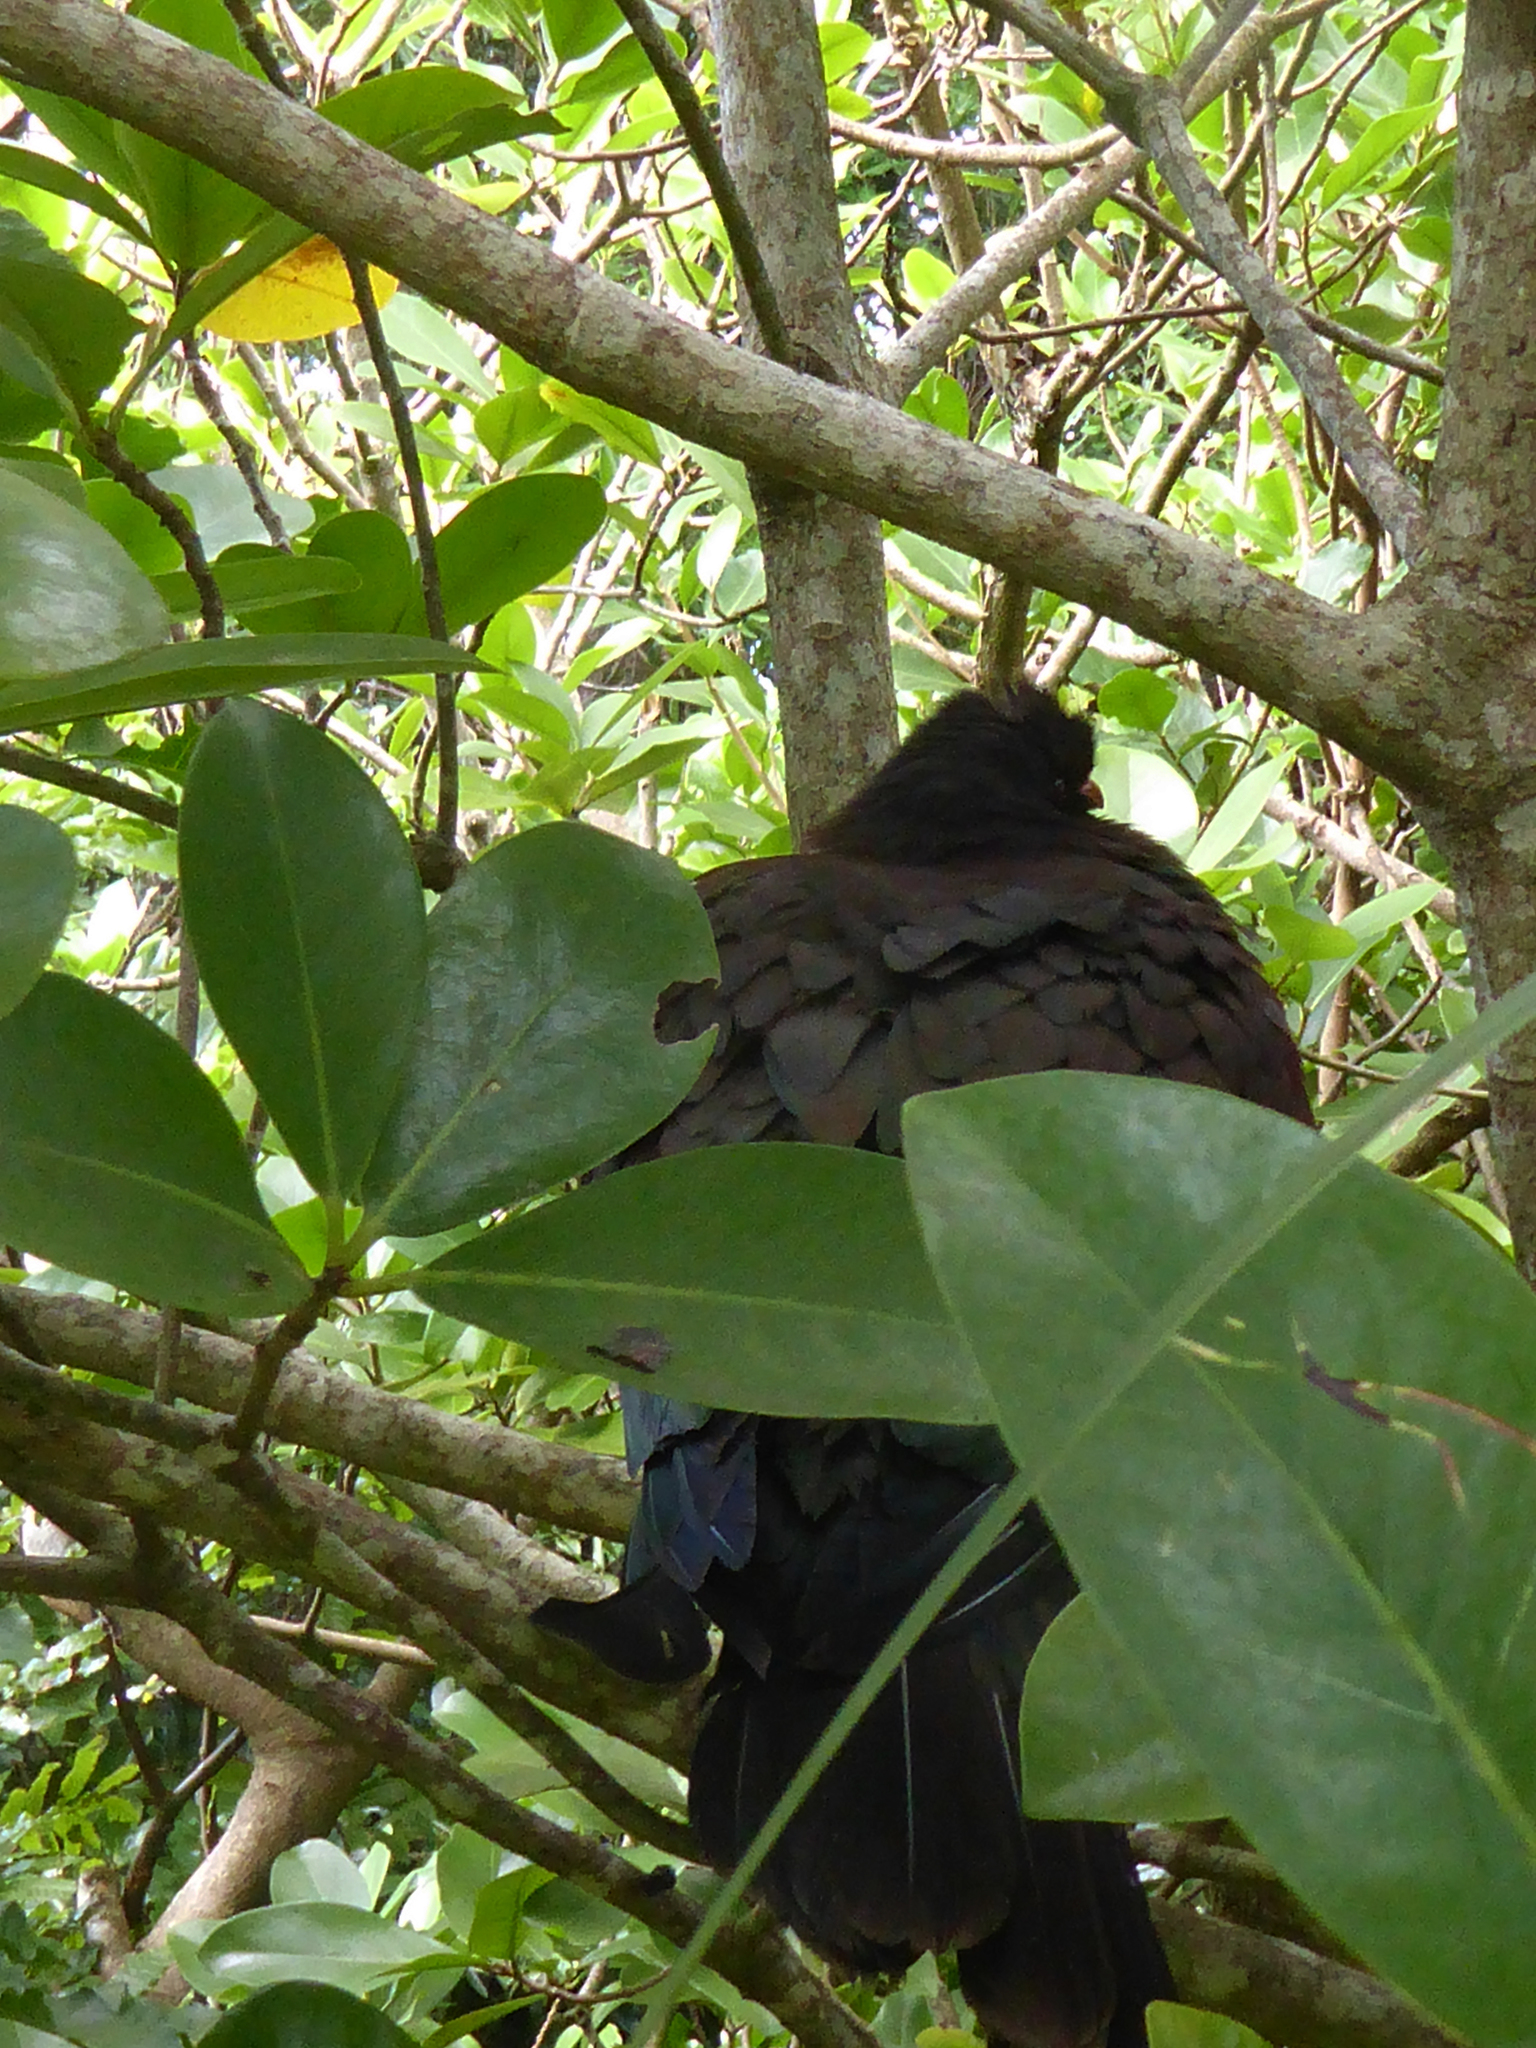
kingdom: Animalia
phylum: Chordata
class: Aves
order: Columbiformes
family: Columbidae
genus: Hemiphaga
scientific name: Hemiphaga novaeseelandiae
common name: New zealand pigeon
